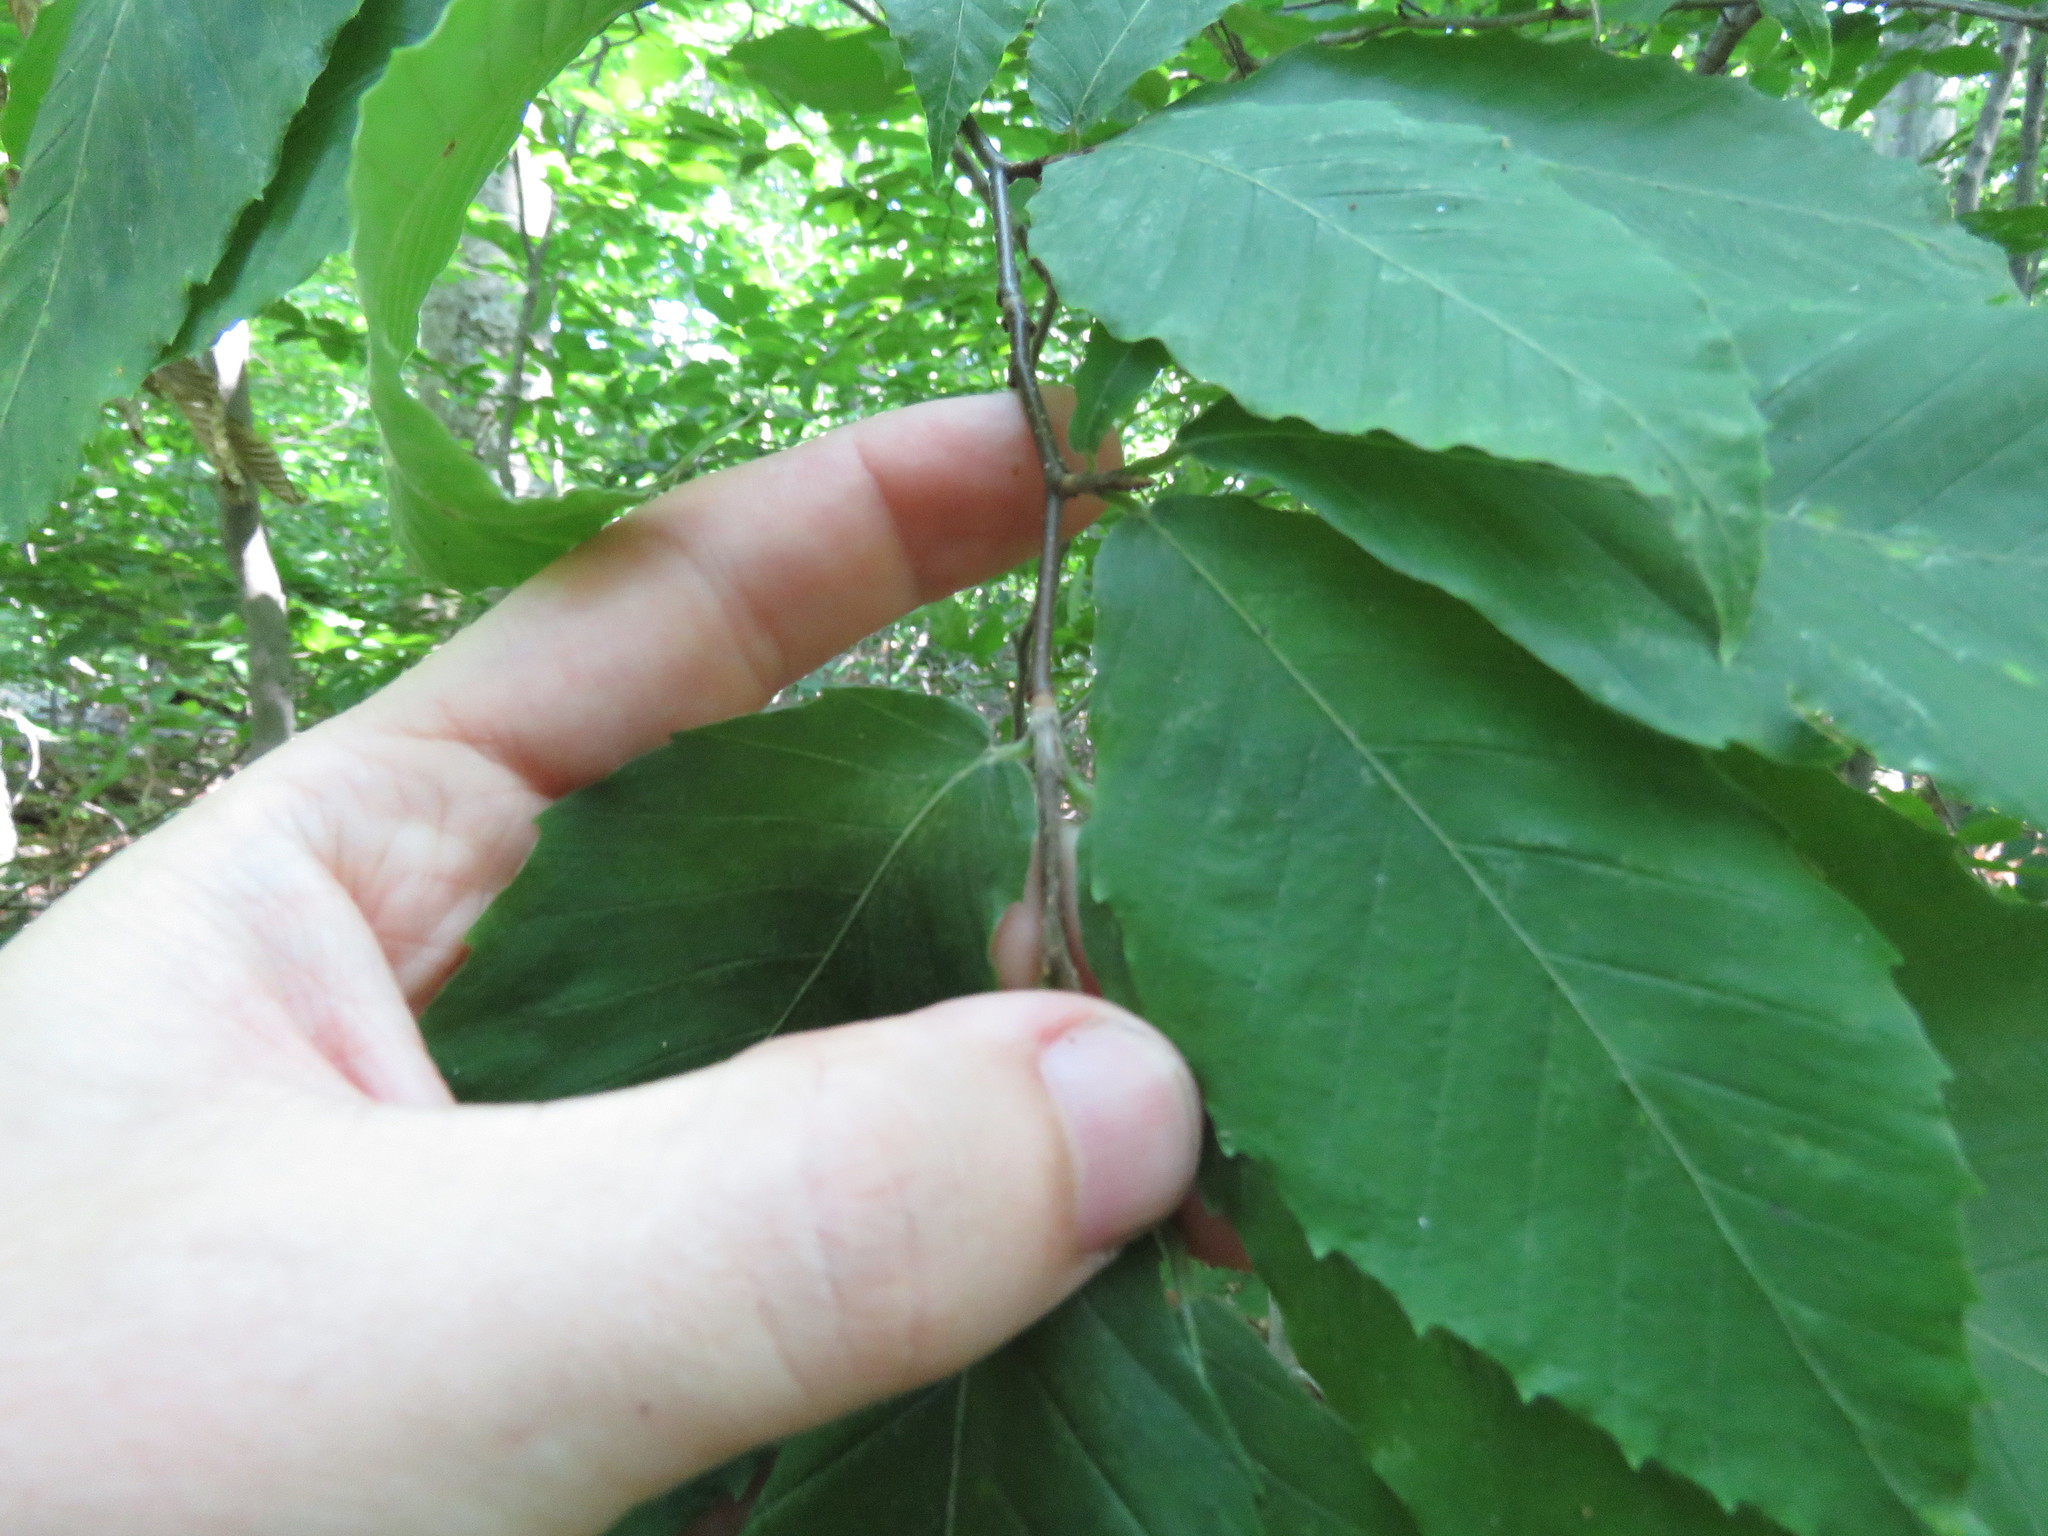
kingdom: Plantae
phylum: Tracheophyta
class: Magnoliopsida
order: Fagales
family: Fagaceae
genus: Fagus
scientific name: Fagus grandifolia
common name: American beech
